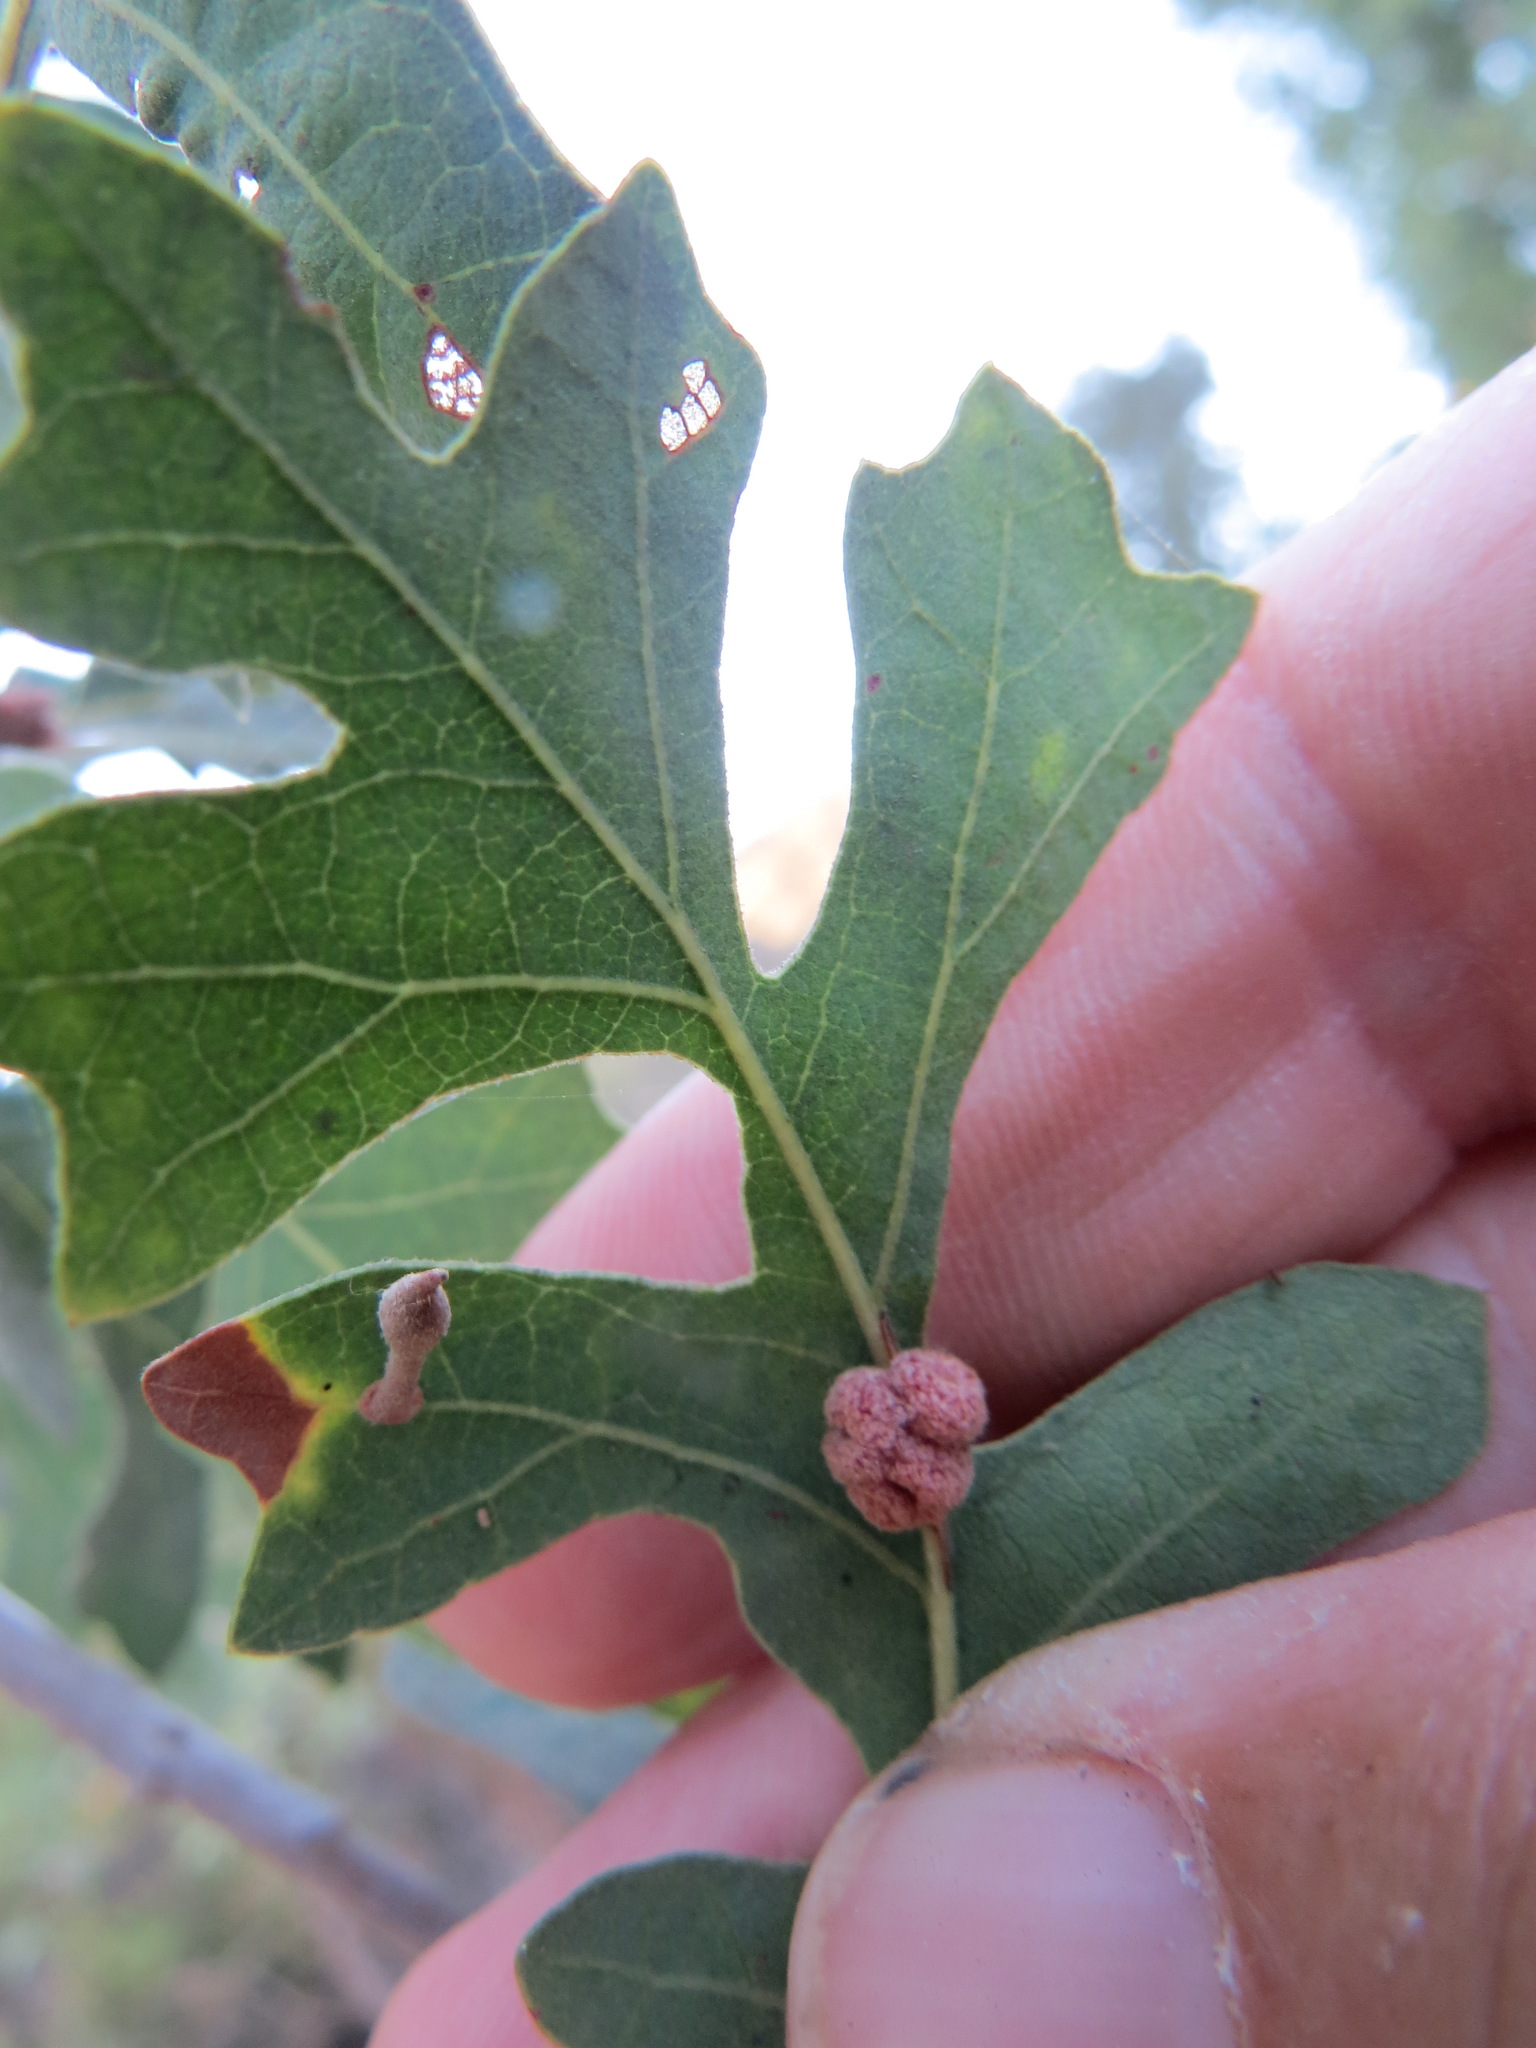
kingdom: Animalia
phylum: Arthropoda
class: Insecta
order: Hymenoptera
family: Cynipidae
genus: Andricus
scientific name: Andricus
